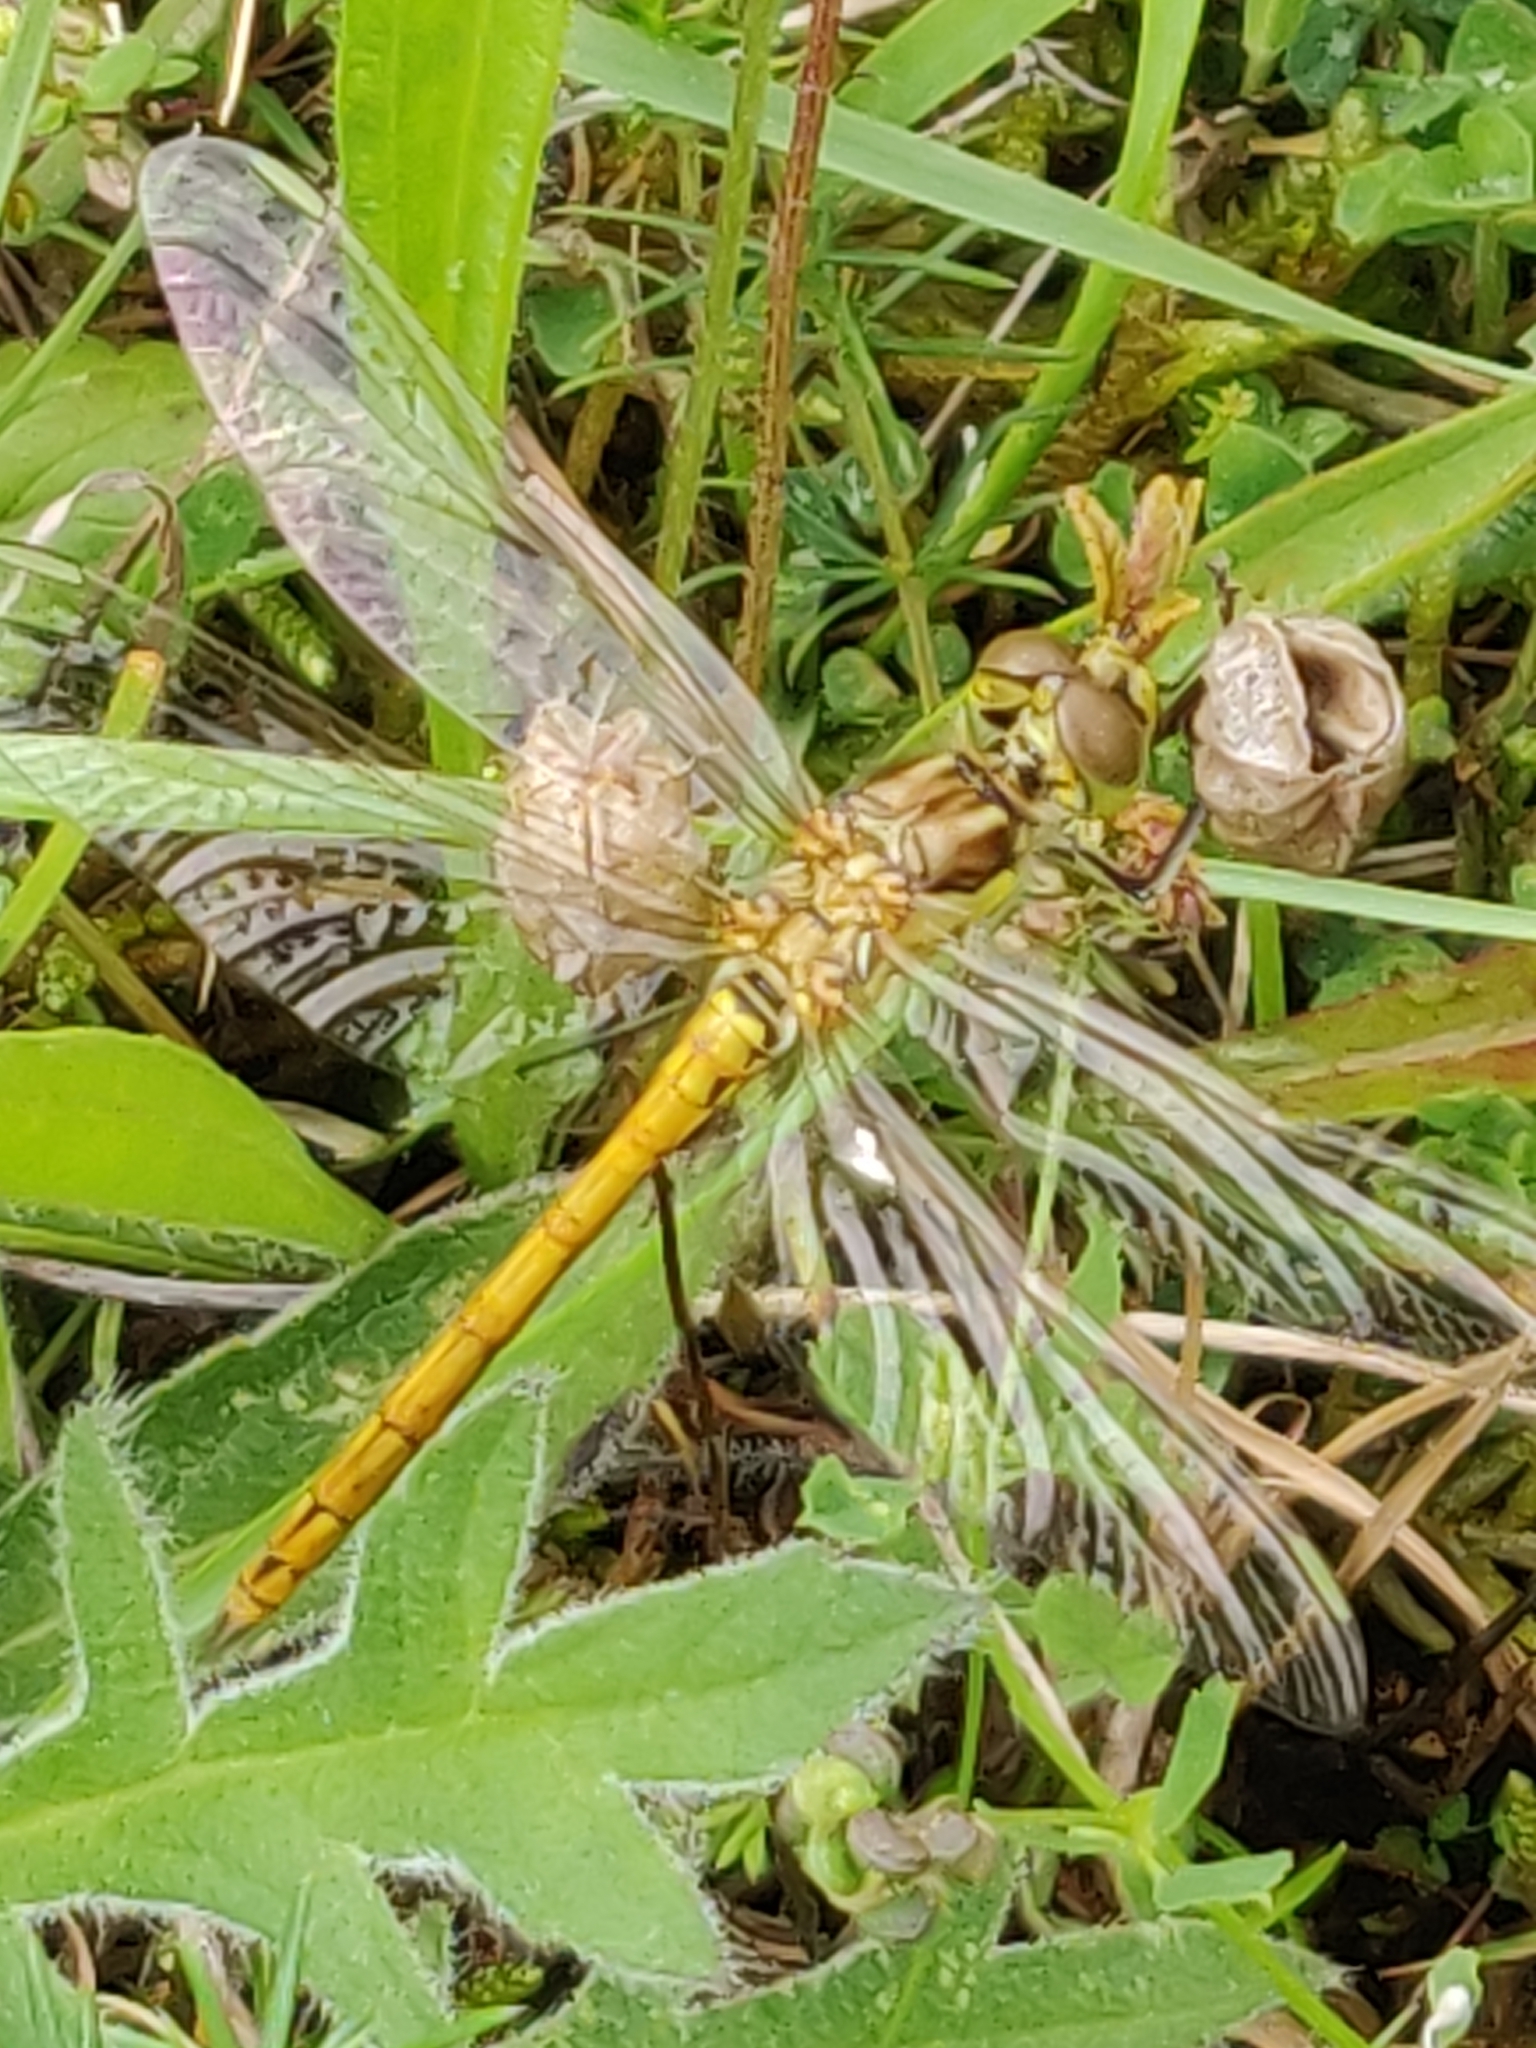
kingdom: Animalia
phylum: Arthropoda
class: Insecta
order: Odonata
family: Libellulidae
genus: Sympetrum
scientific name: Sympetrum vulgatum
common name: Vagrant darter
